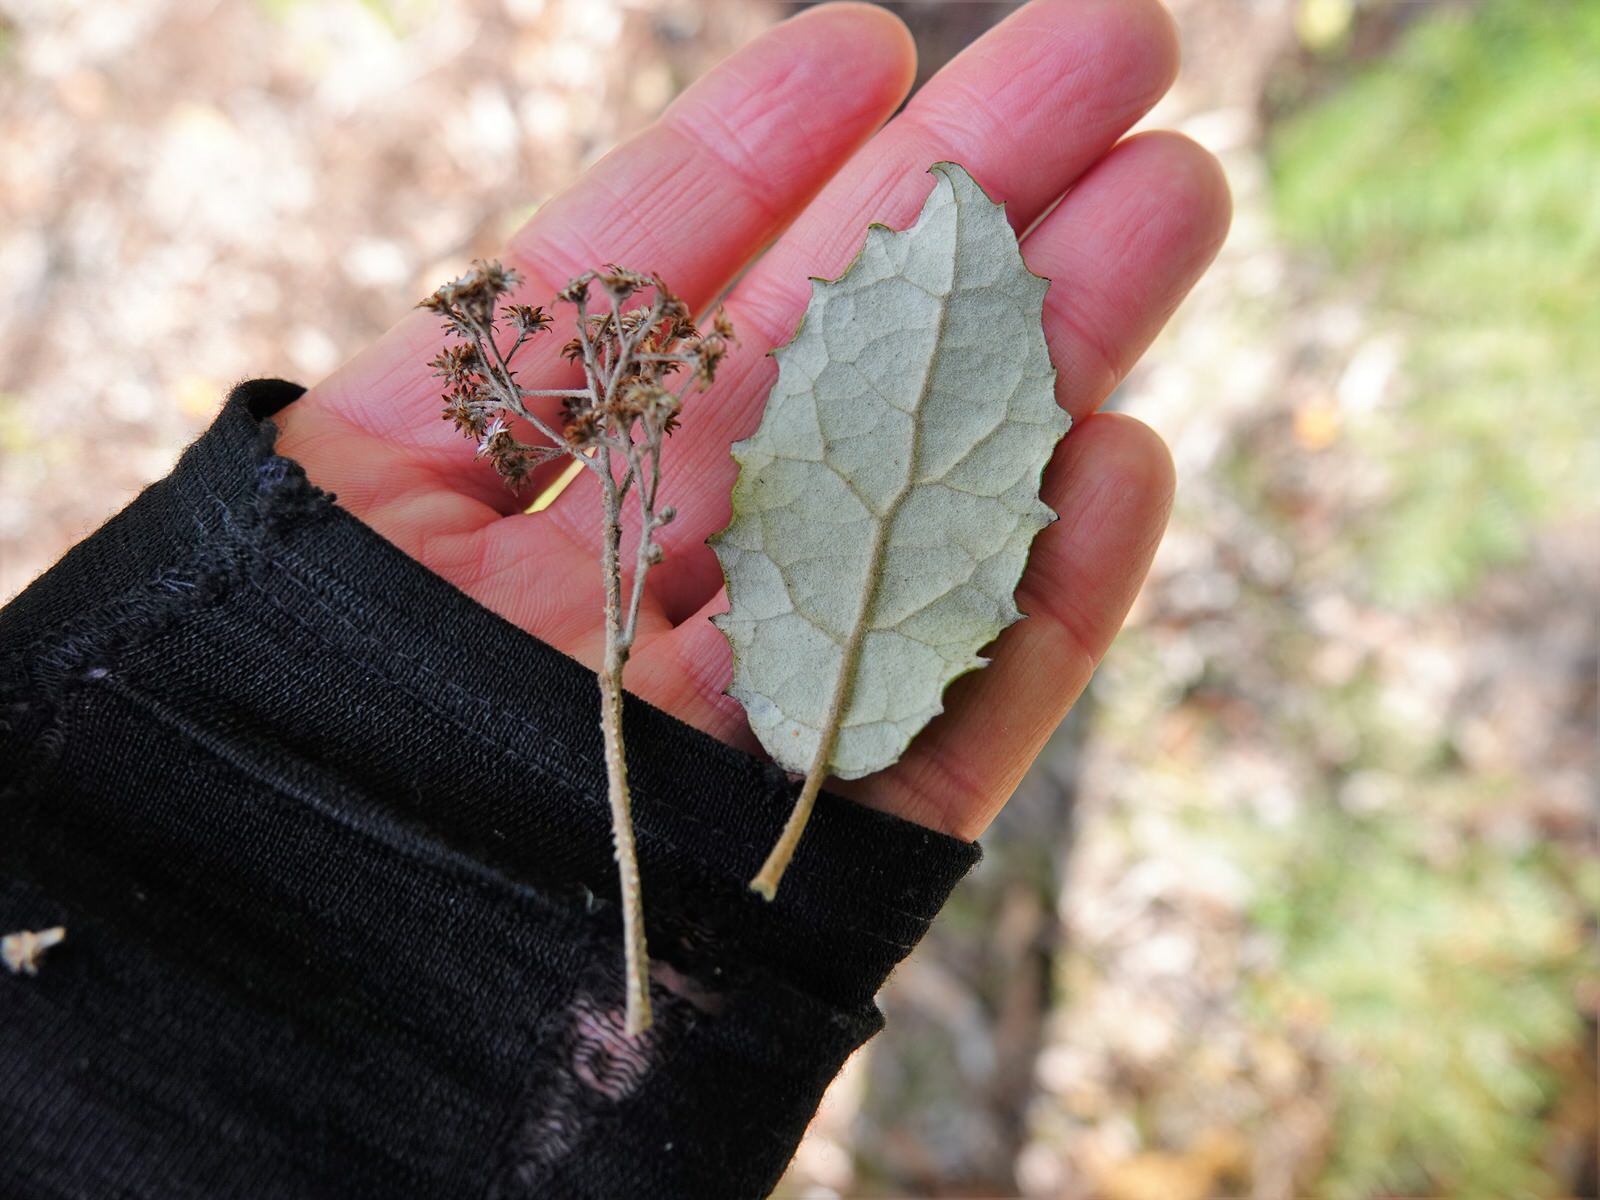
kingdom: Plantae
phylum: Tracheophyta
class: Magnoliopsida
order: Asterales
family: Asteraceae
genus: Olearia
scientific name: Olearia rani
